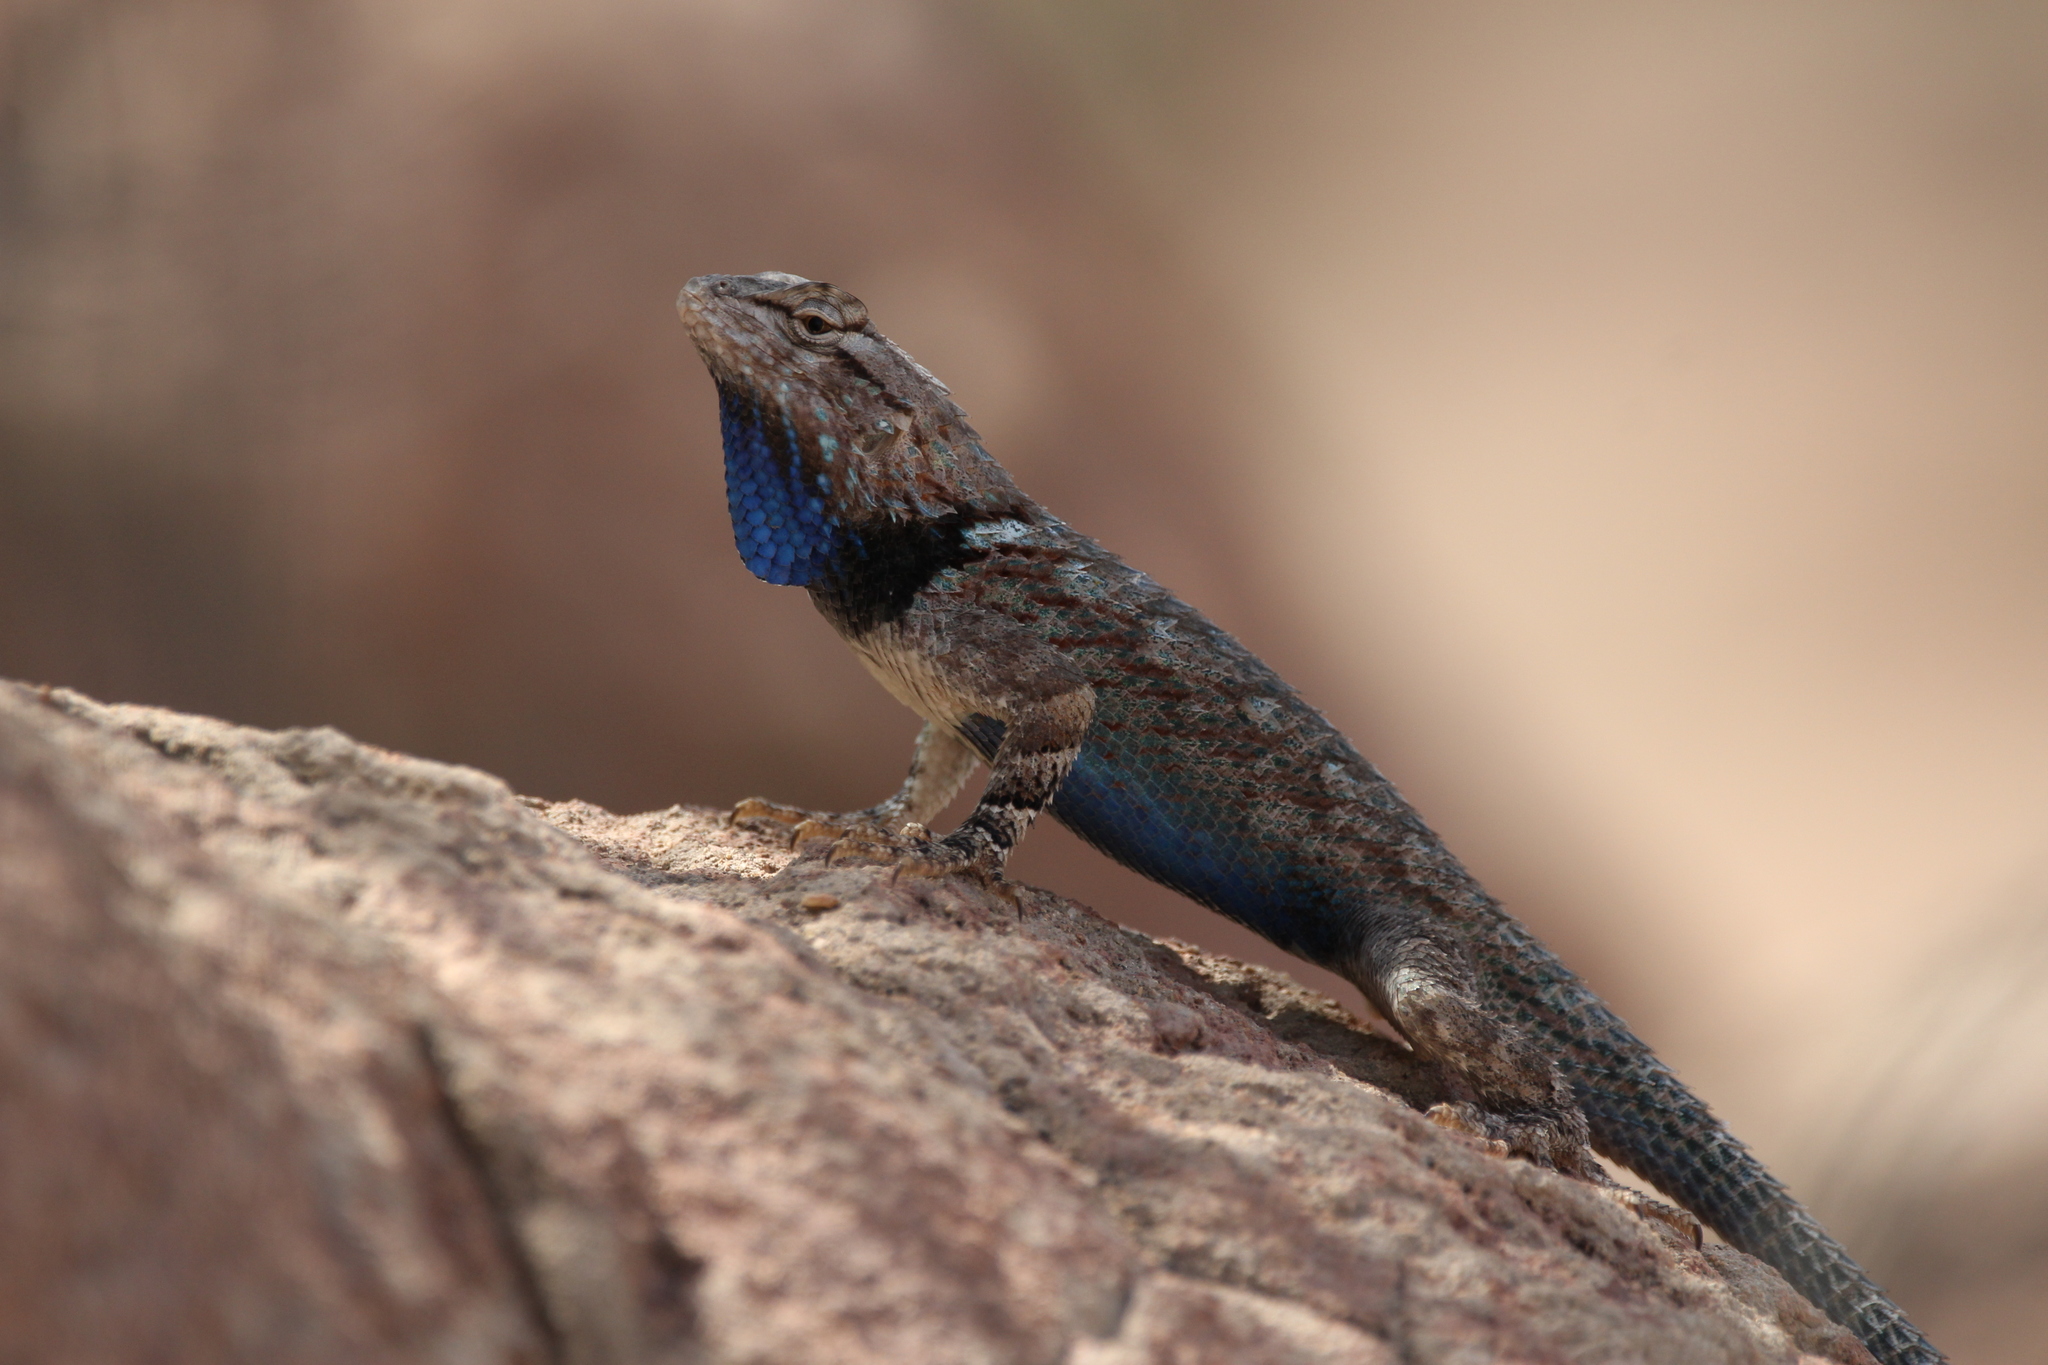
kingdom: Animalia
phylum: Chordata
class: Squamata
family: Phrynosomatidae
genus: Sceloporus
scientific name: Sceloporus clarkii
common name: Clark's spiny lizard
